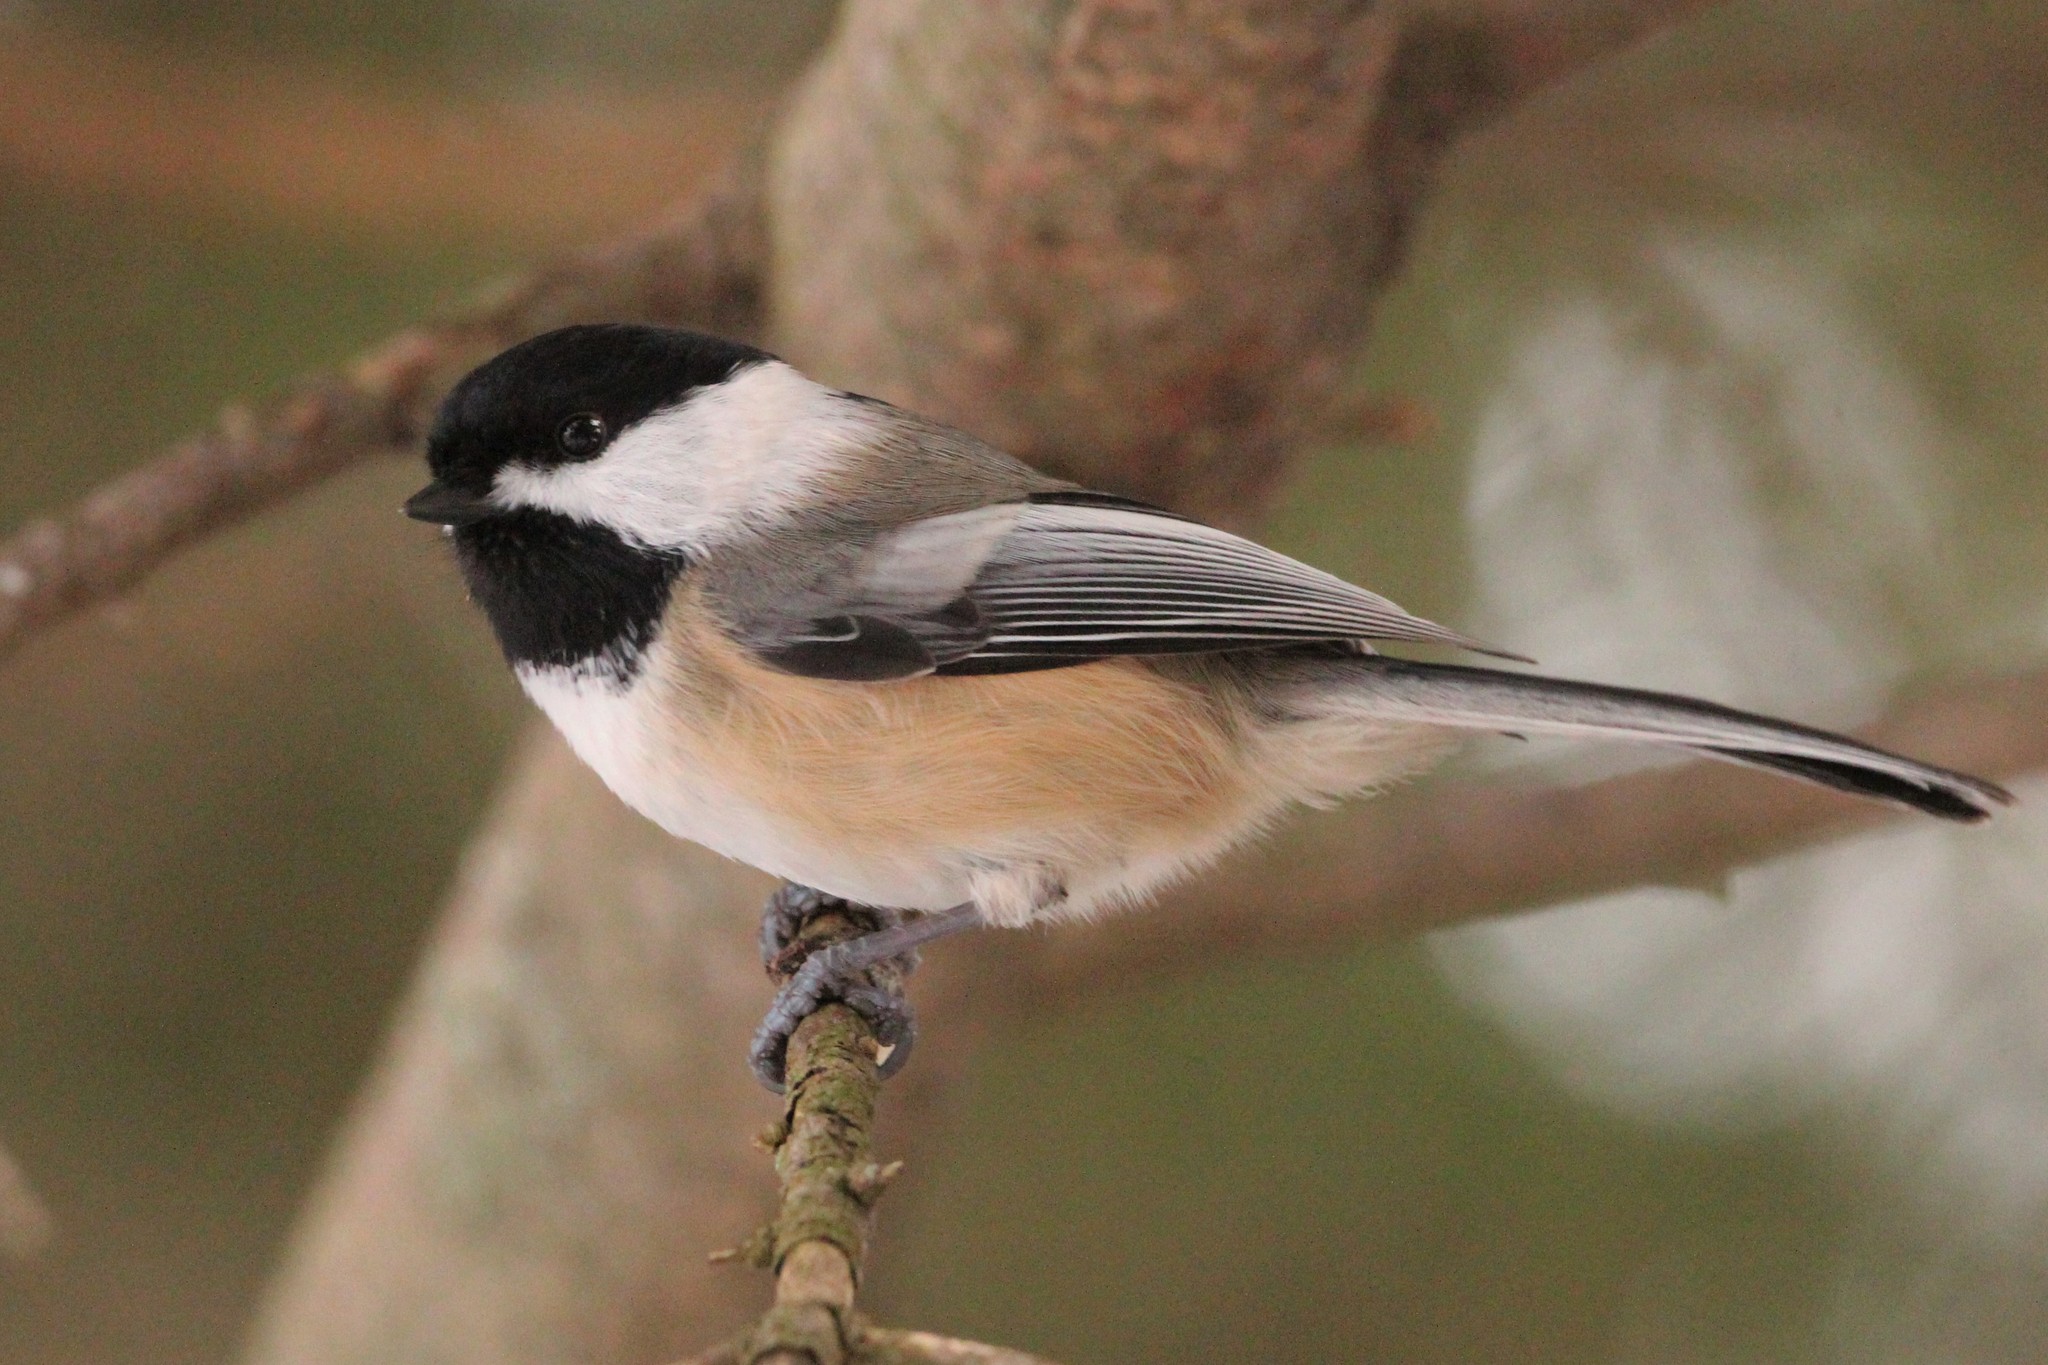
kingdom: Animalia
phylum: Chordata
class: Aves
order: Passeriformes
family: Paridae
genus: Poecile
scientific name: Poecile atricapillus
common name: Black-capped chickadee
